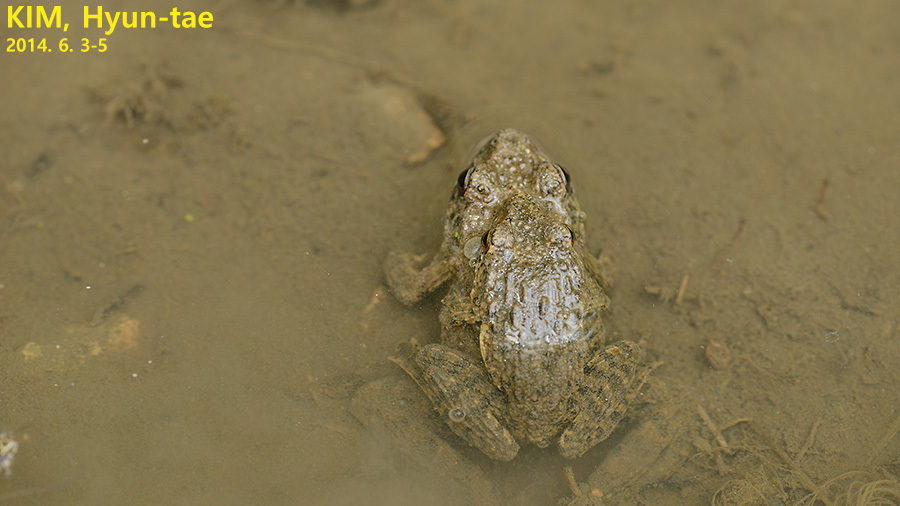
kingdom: Animalia
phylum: Chordata
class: Amphibia
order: Anura
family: Ranidae
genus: Glandirana
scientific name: Glandirana emeljanovi
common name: Northeast china rough-skinned frog
